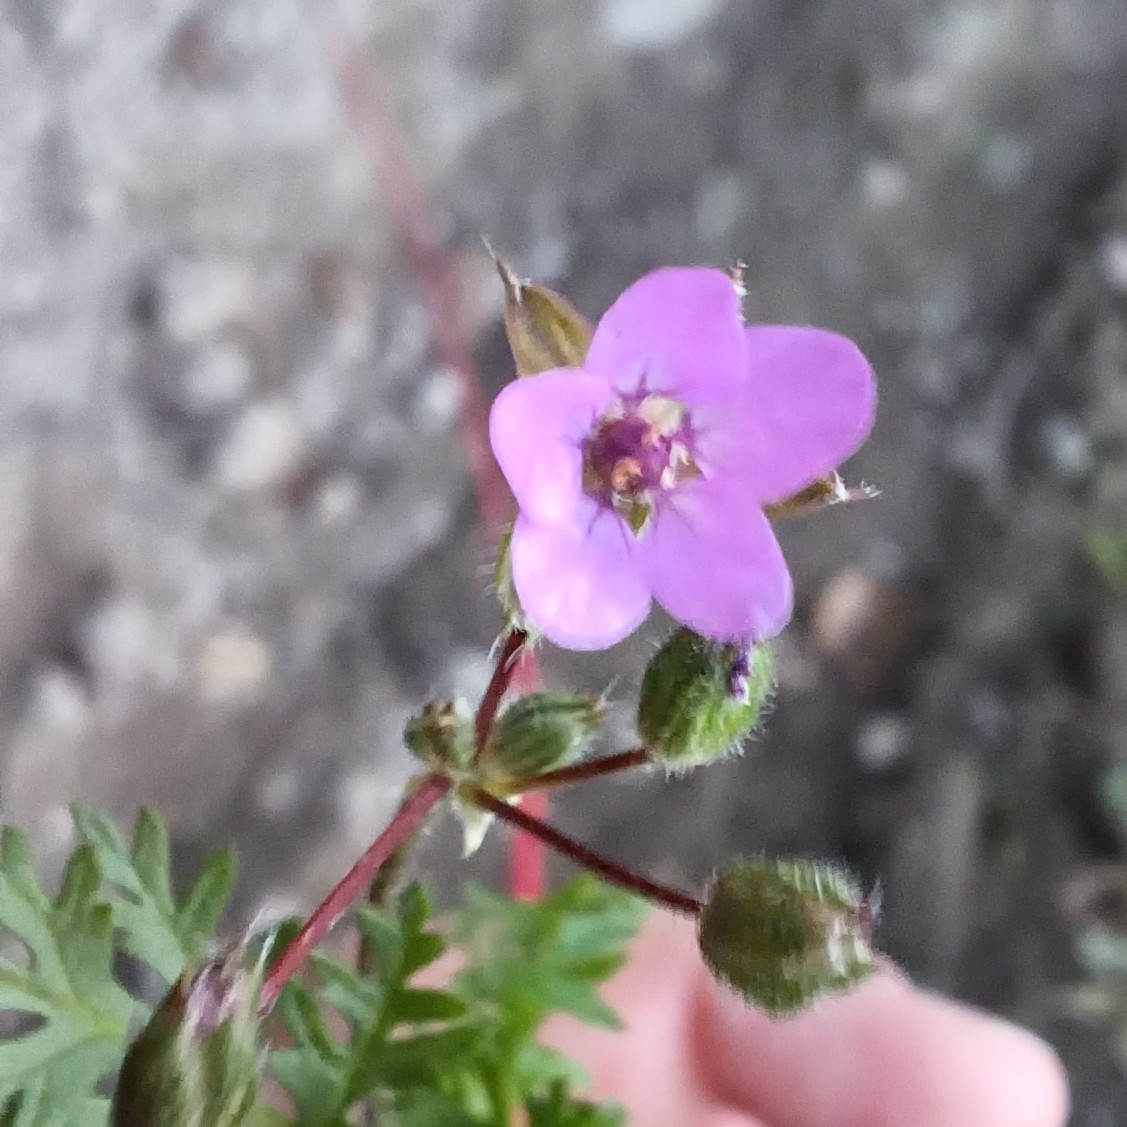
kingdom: Plantae
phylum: Tracheophyta
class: Magnoliopsida
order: Geraniales
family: Geraniaceae
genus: Erodium
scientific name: Erodium cicutarium
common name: Common stork's-bill
